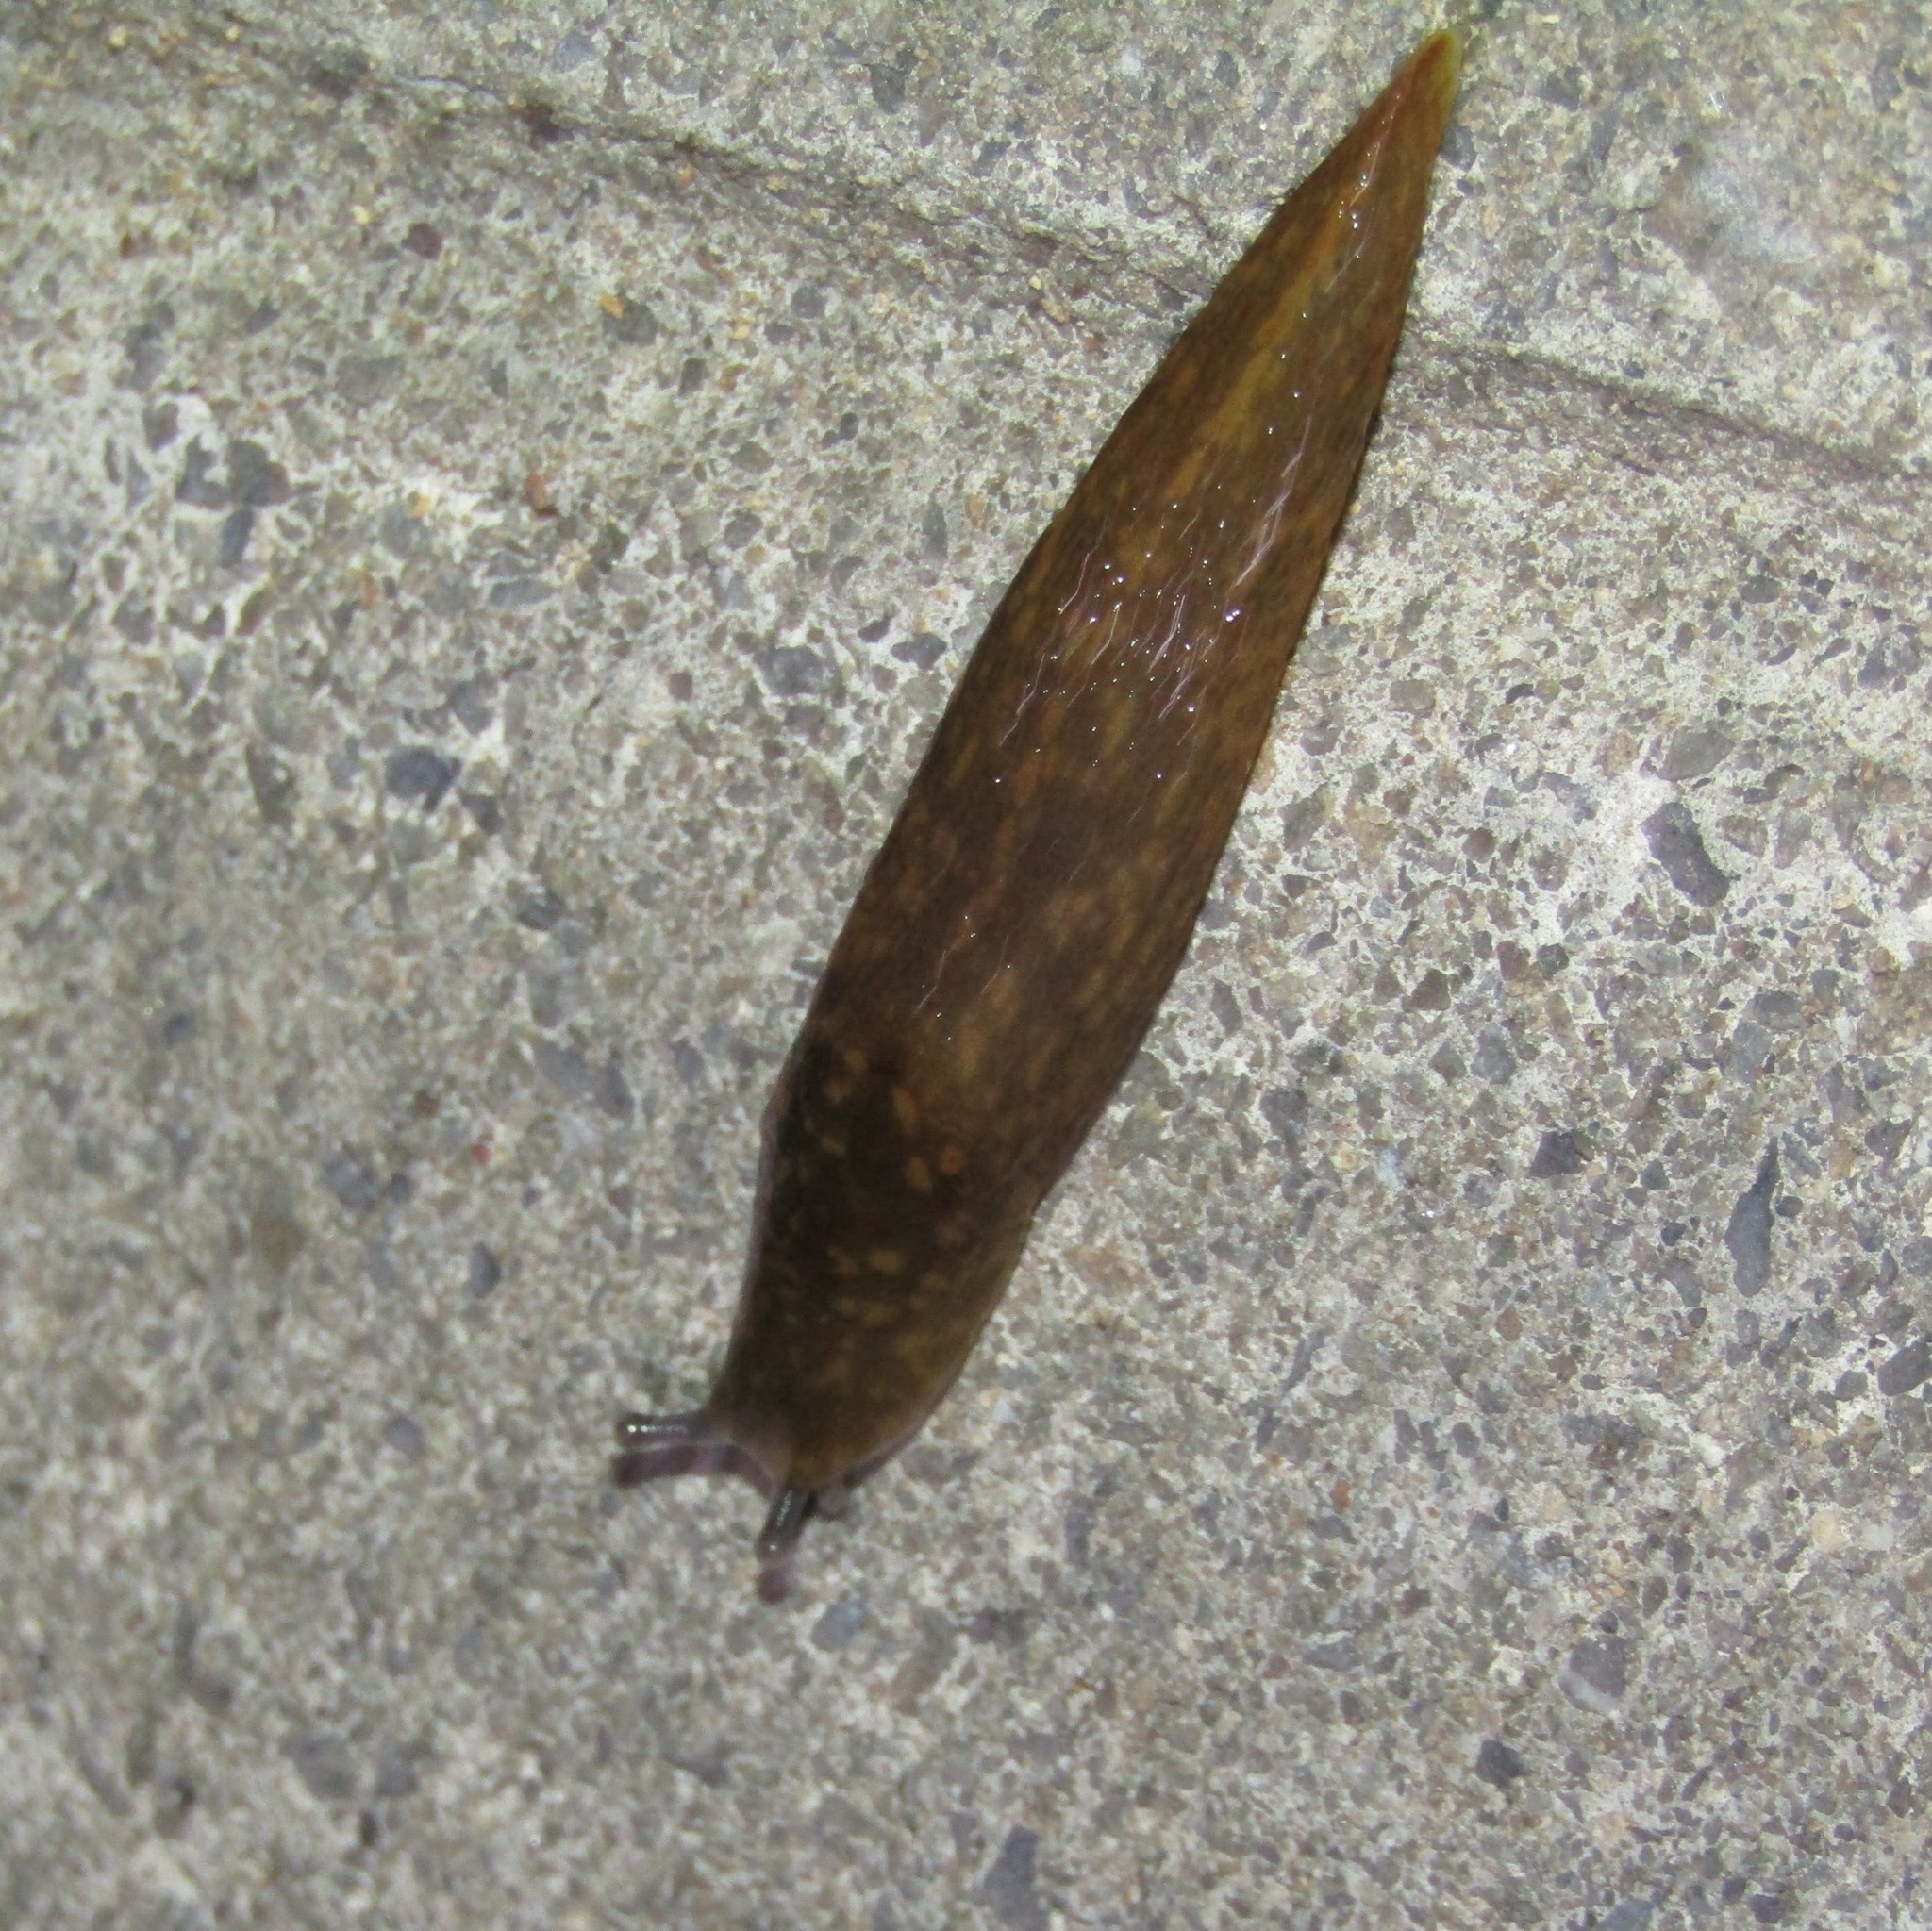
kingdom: Animalia
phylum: Mollusca
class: Gastropoda
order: Stylommatophora
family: Limacidae
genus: Limacus
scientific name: Limacus flavus
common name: Yellow gardenslug
